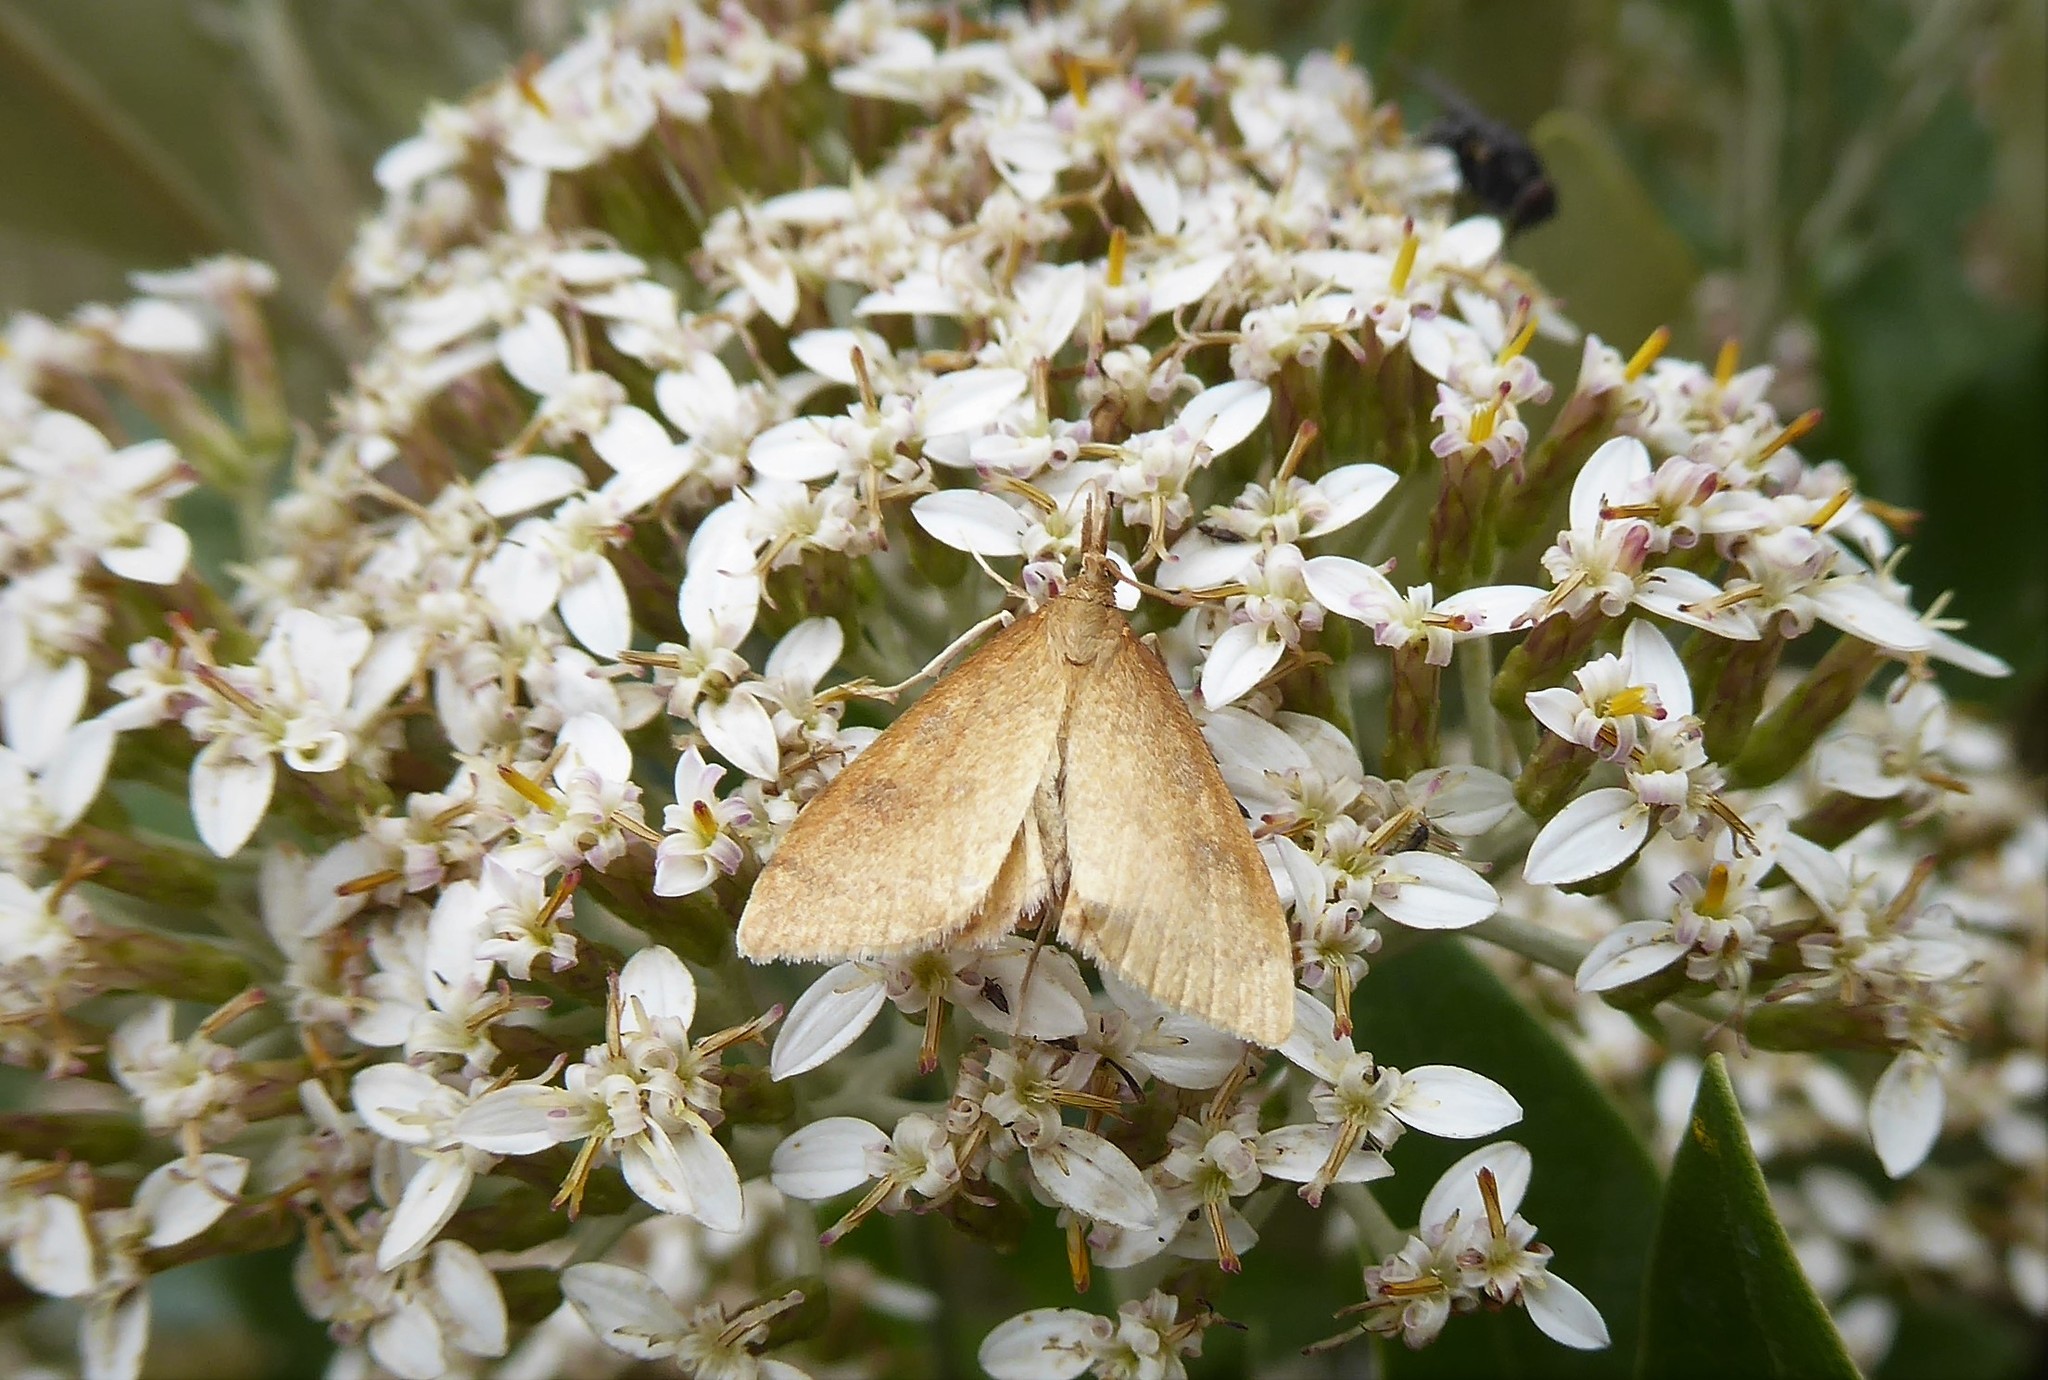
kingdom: Animalia
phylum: Arthropoda
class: Insecta
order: Lepidoptera
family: Crambidae
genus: Udea
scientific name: Udea Mnesictena flavidalis
